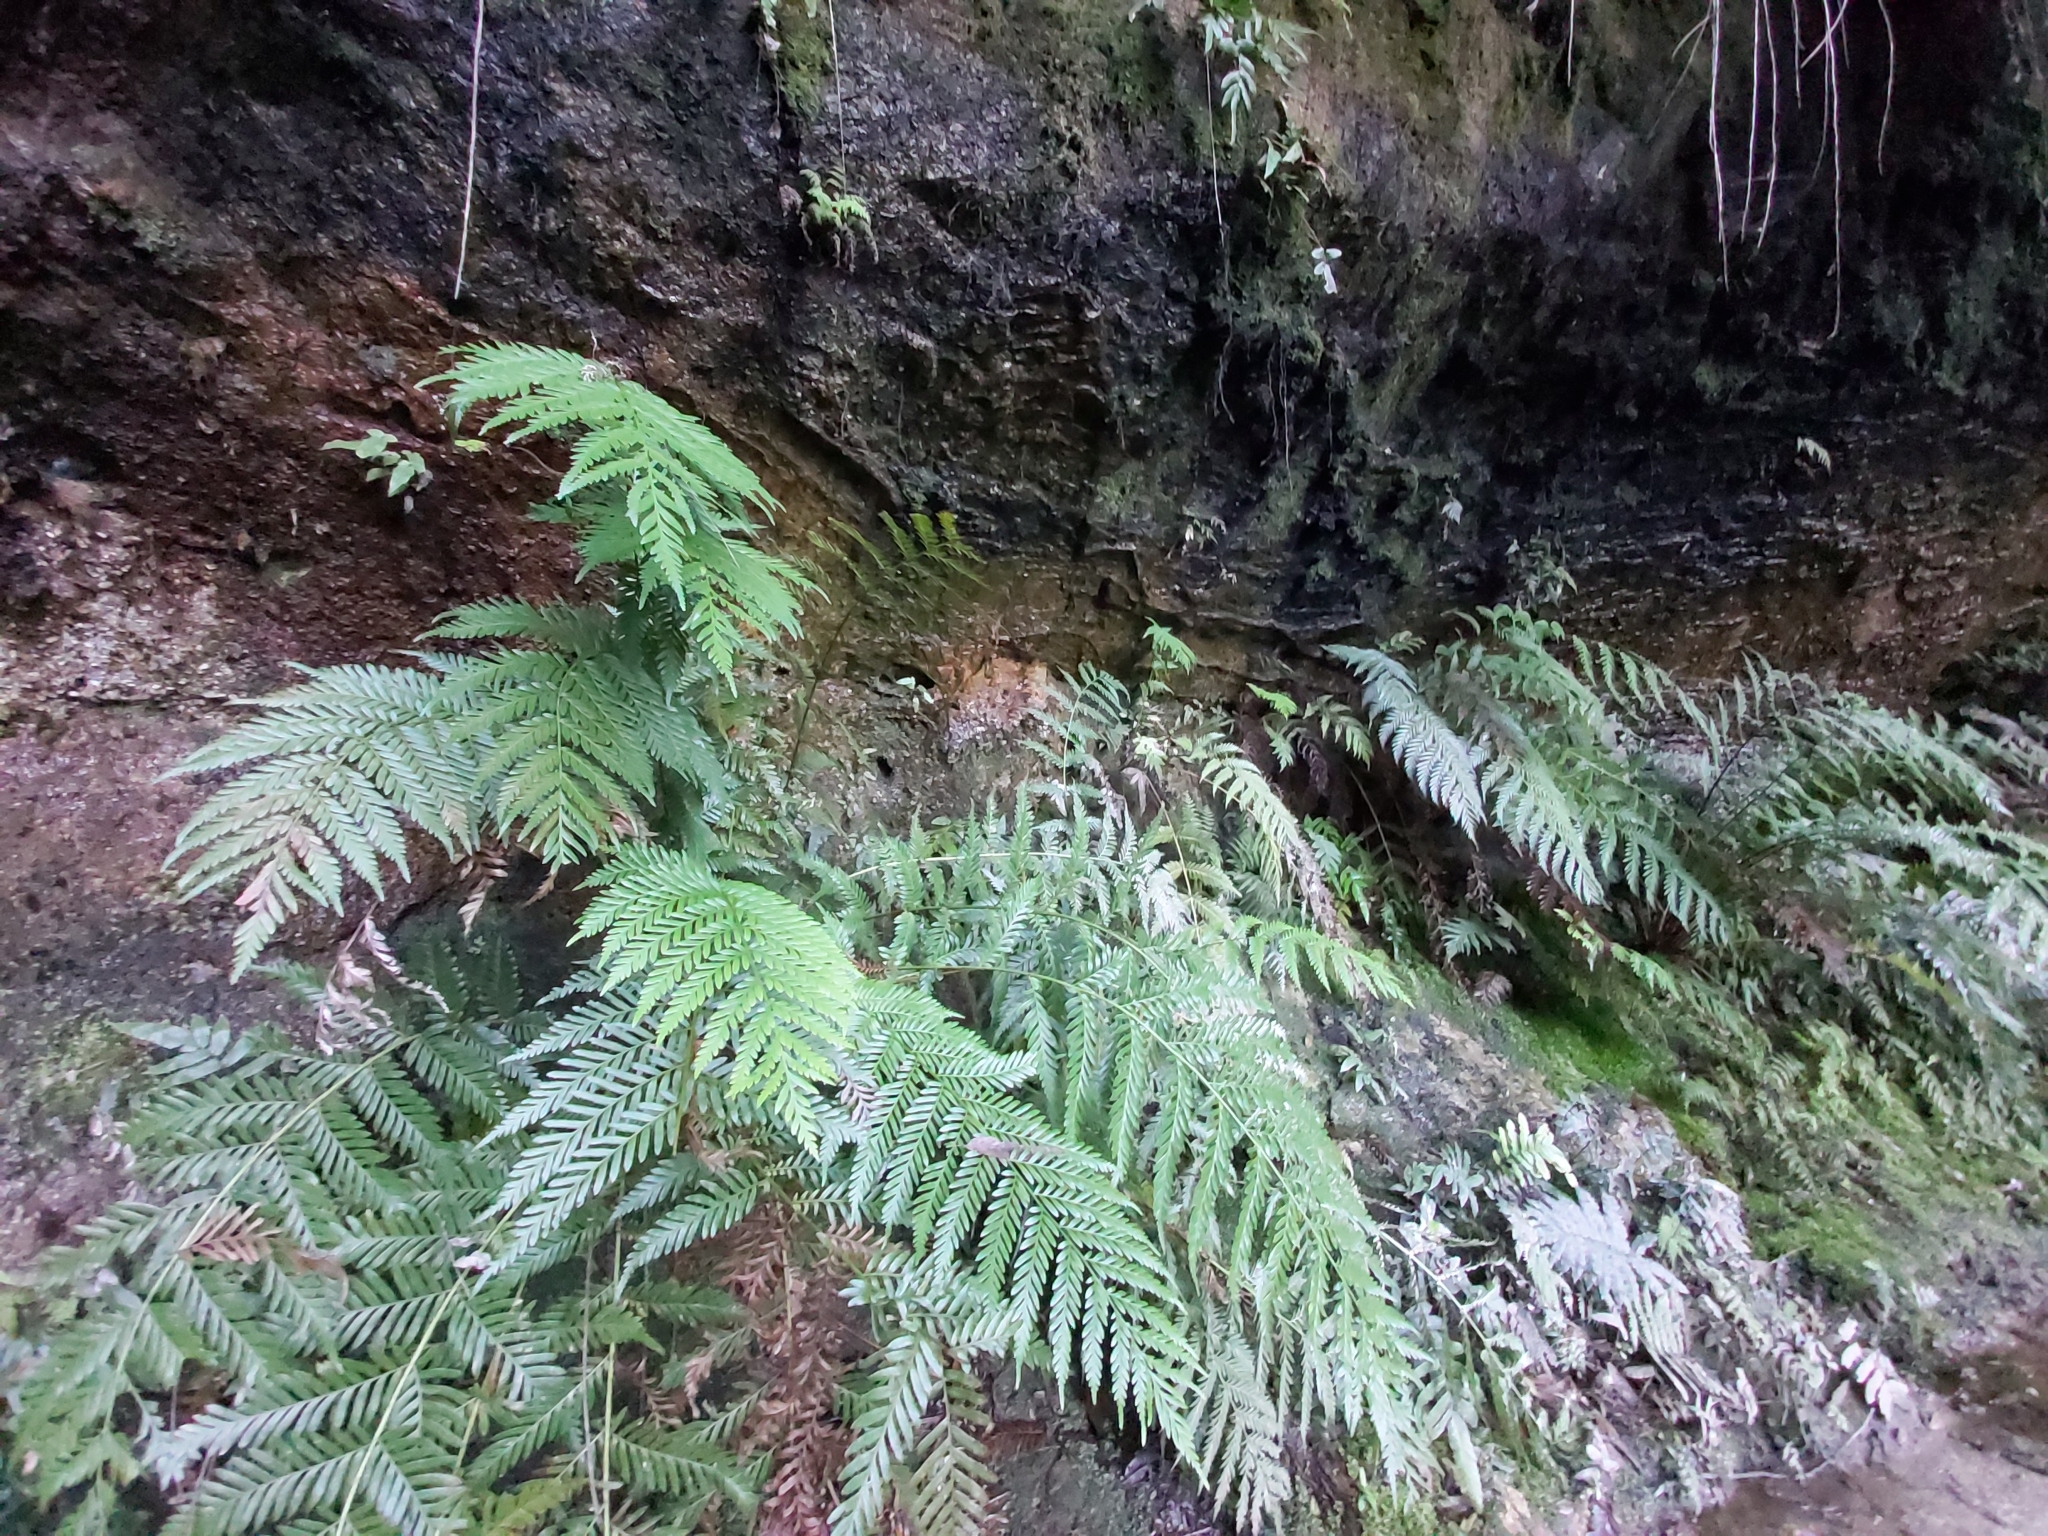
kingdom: Plantae
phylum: Tracheophyta
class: Polypodiopsida
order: Osmundales
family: Osmundaceae
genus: Todea
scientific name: Todea barbara
